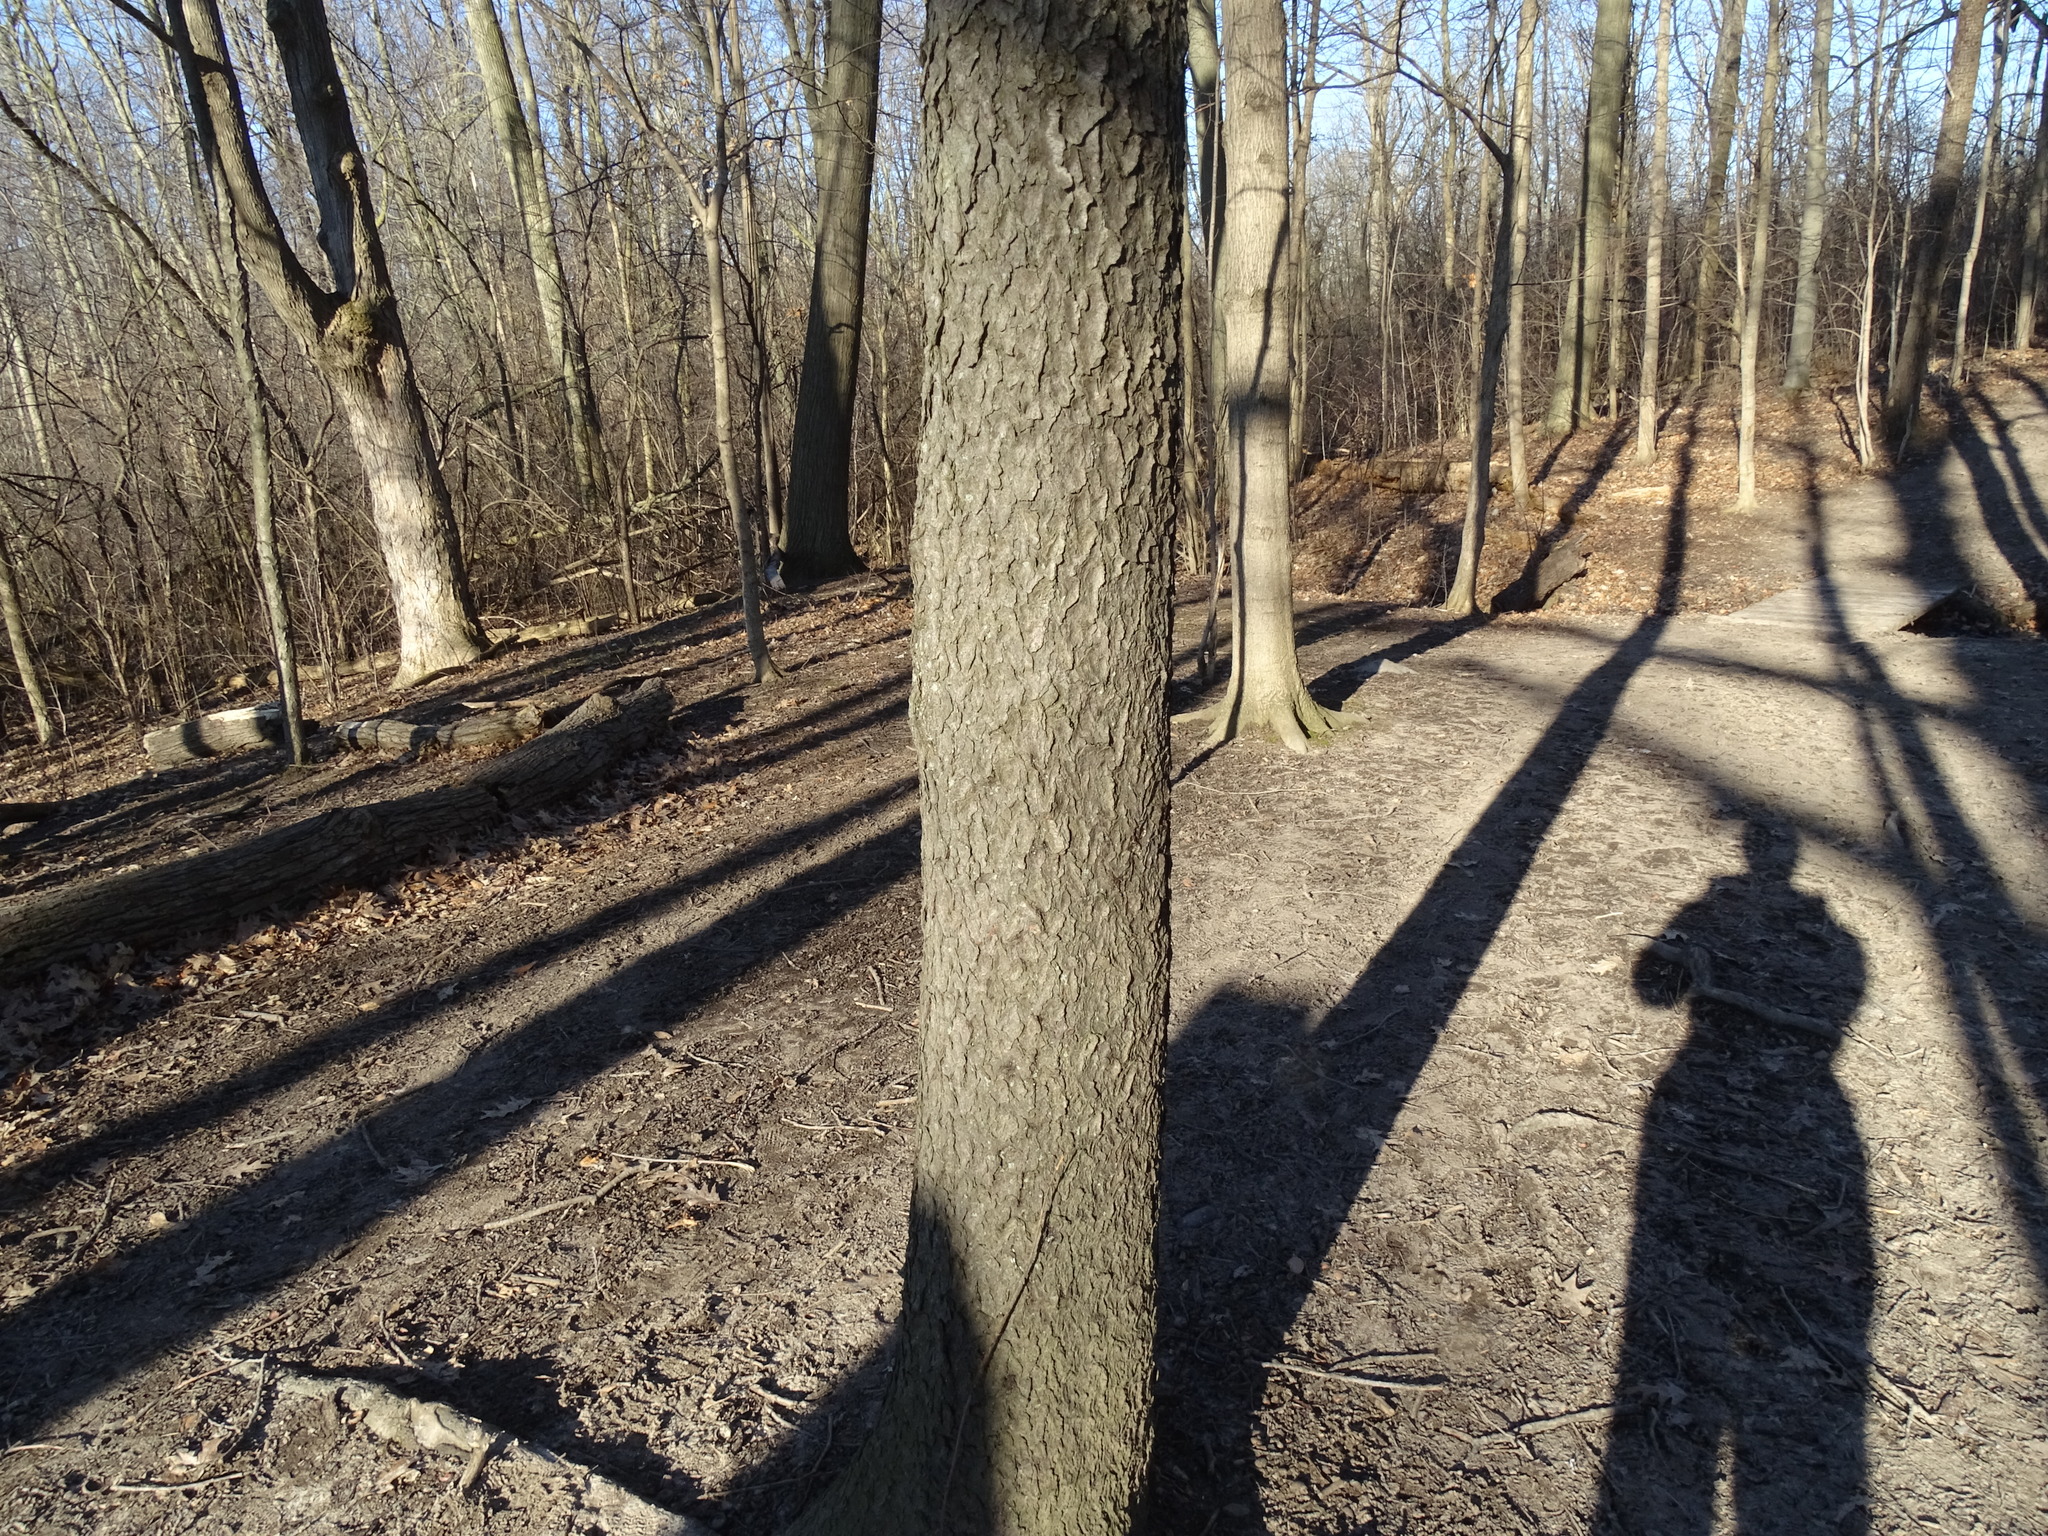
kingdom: Plantae
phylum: Tracheophyta
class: Magnoliopsida
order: Rosales
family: Rosaceae
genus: Prunus
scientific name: Prunus serotina
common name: Black cherry
